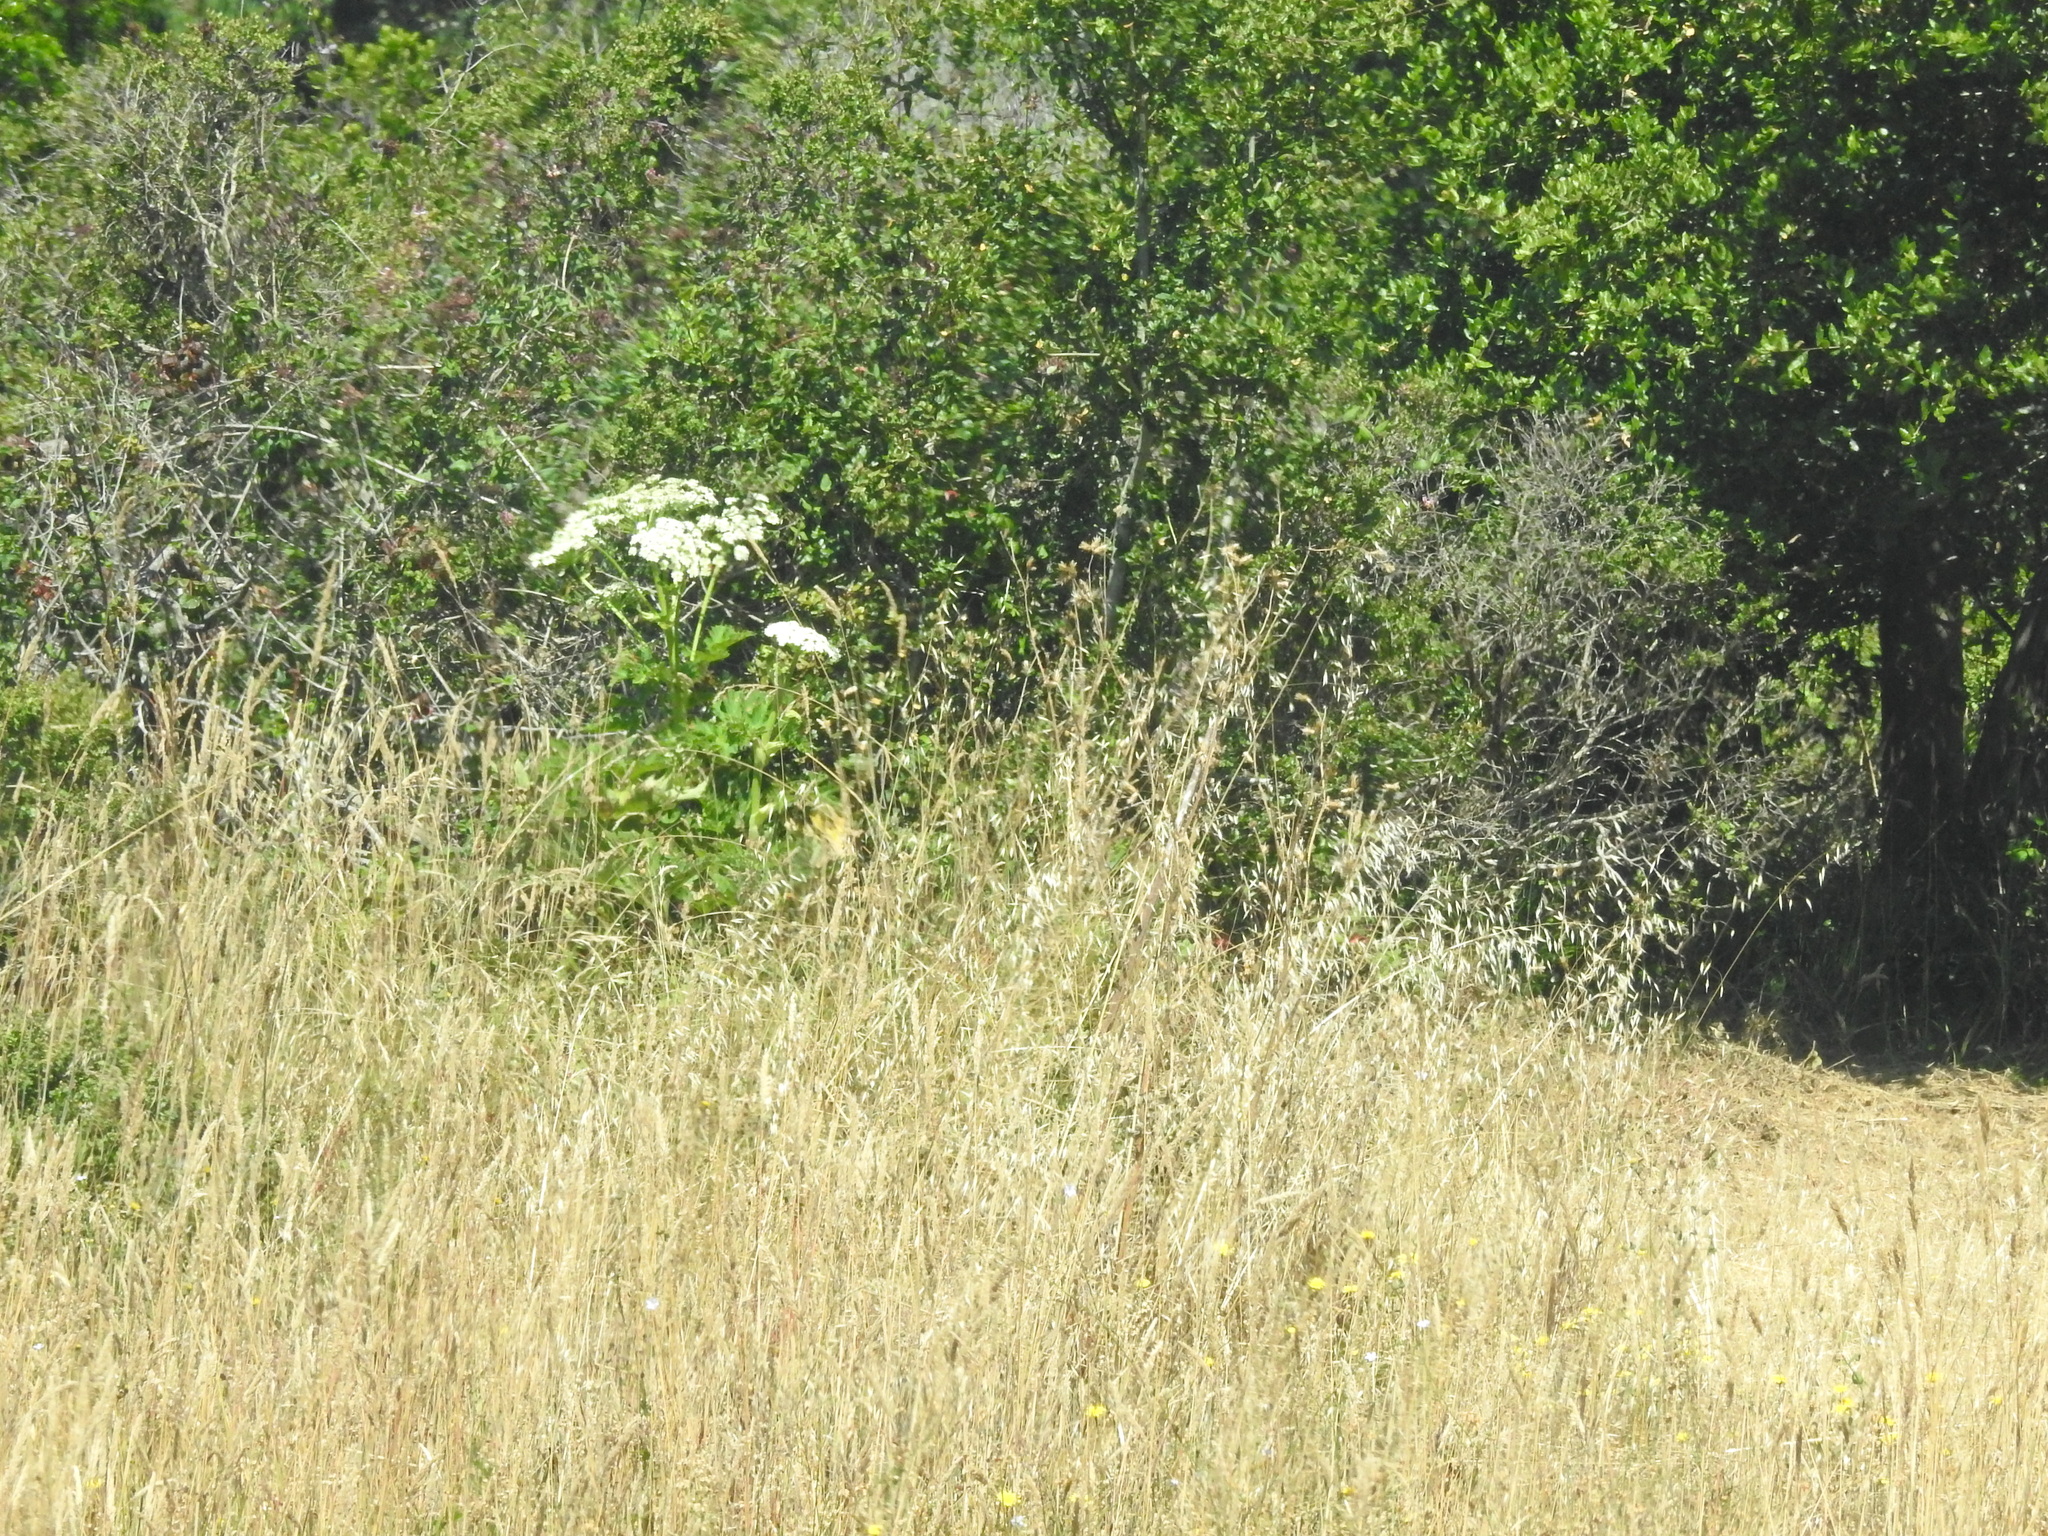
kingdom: Plantae
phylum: Tracheophyta
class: Magnoliopsida
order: Apiales
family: Apiaceae
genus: Heracleum
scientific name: Heracleum maximum
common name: American cow parsnip
